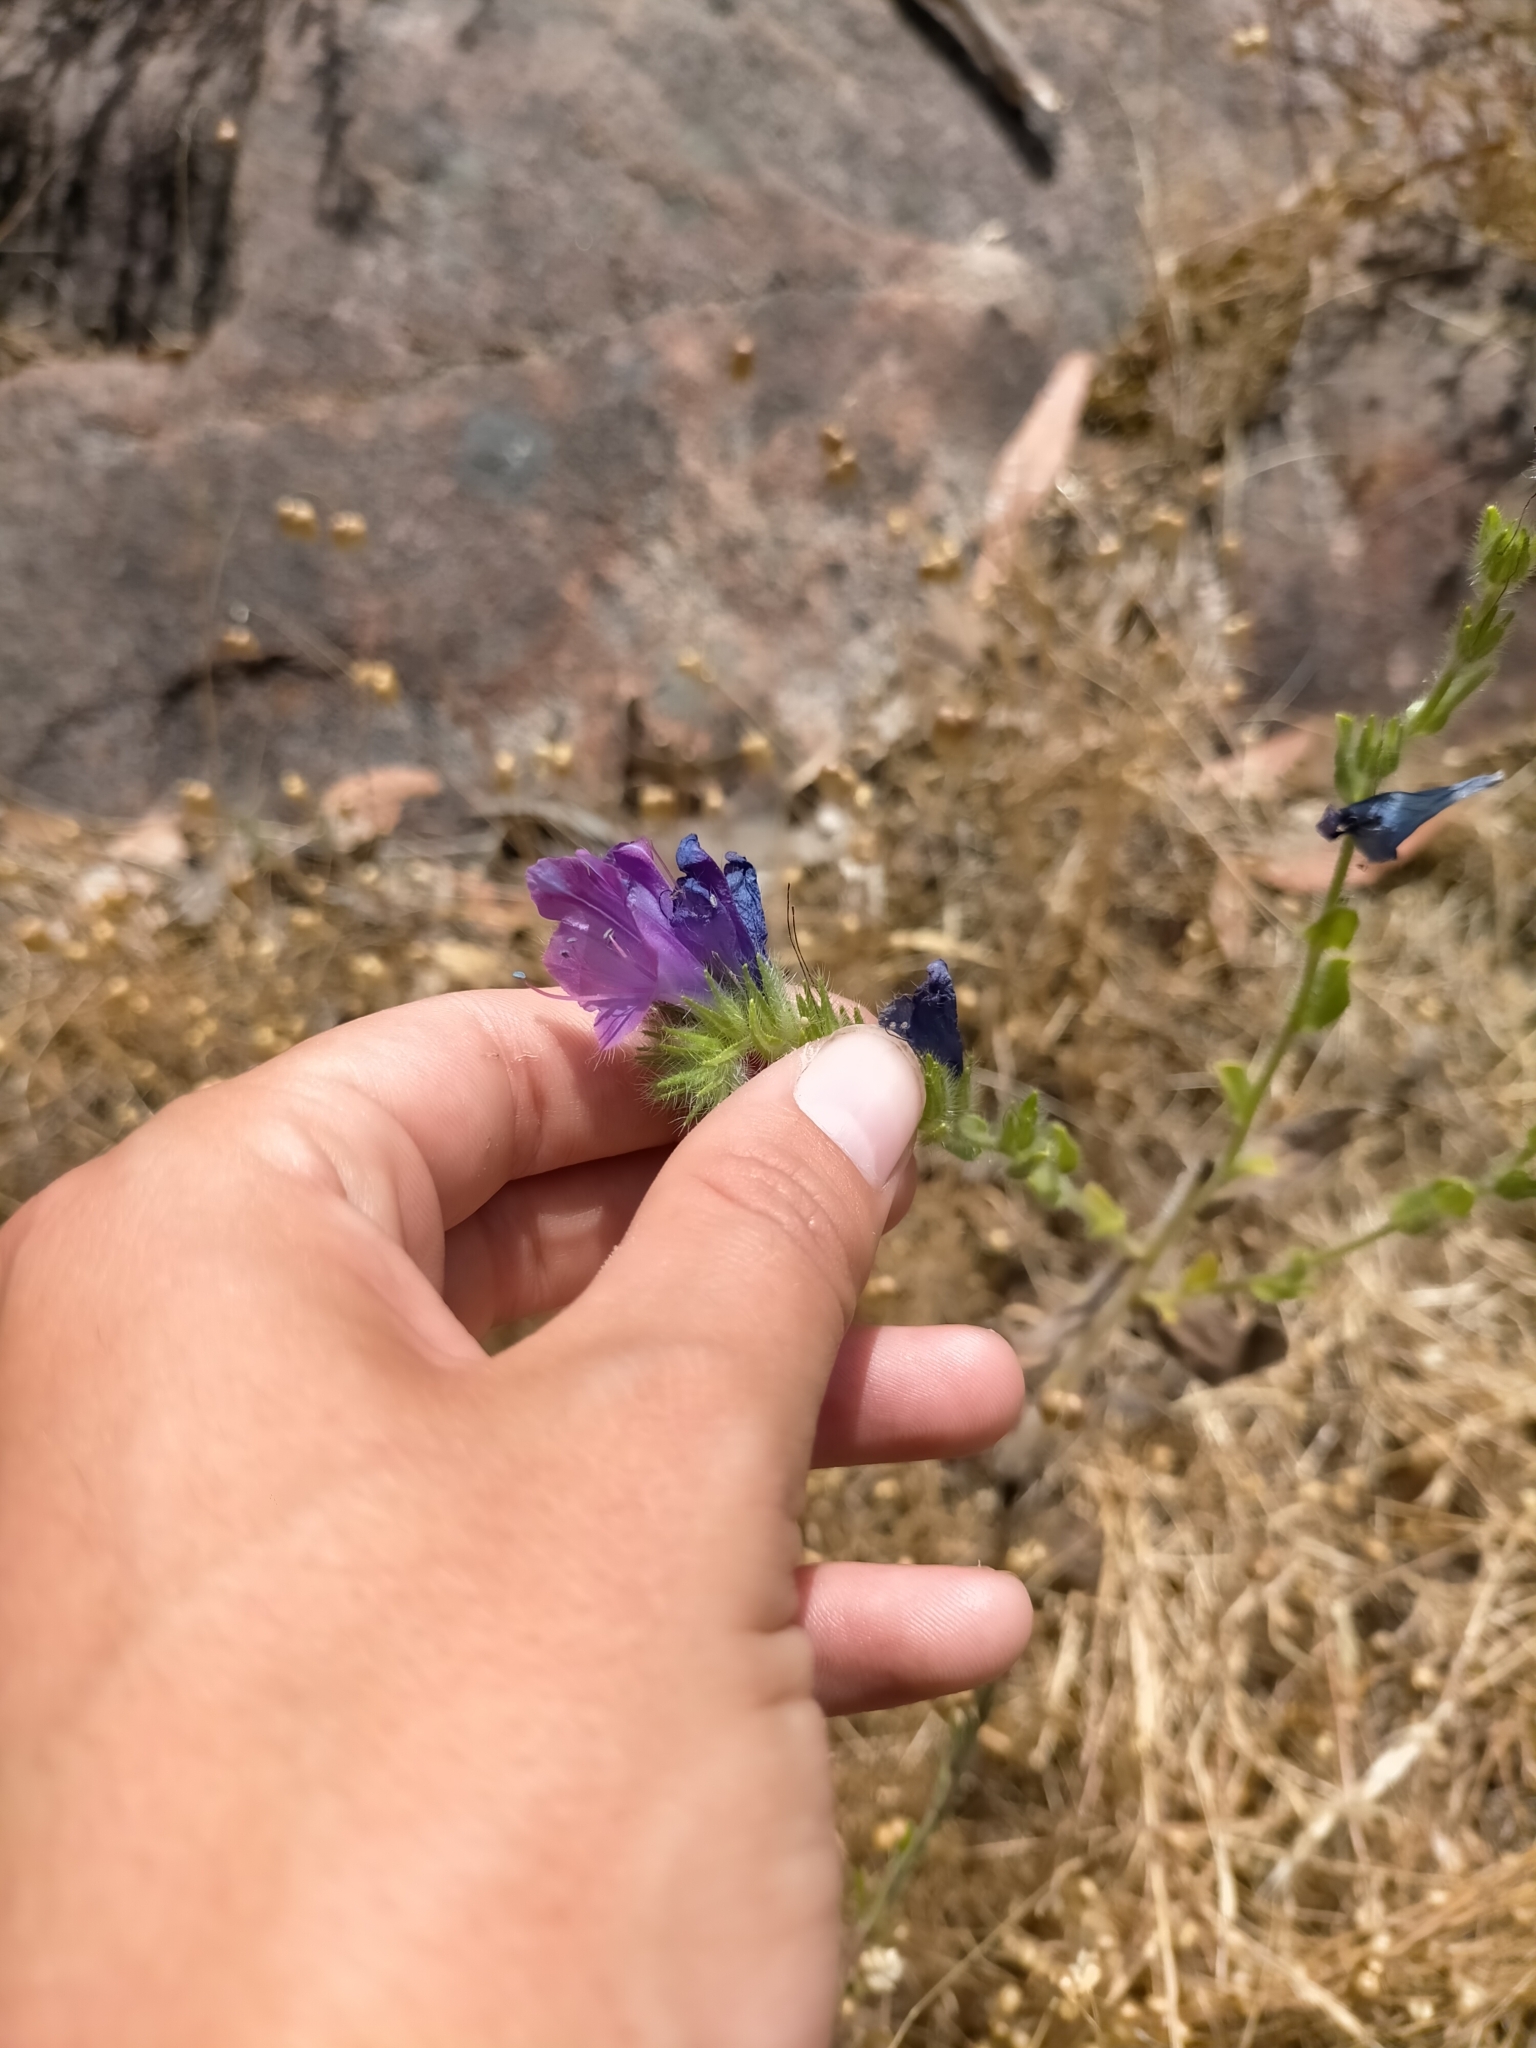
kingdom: Plantae
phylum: Tracheophyta
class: Magnoliopsida
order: Boraginales
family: Boraginaceae
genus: Echium
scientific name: Echium plantagineum
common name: Purple viper's-bugloss
